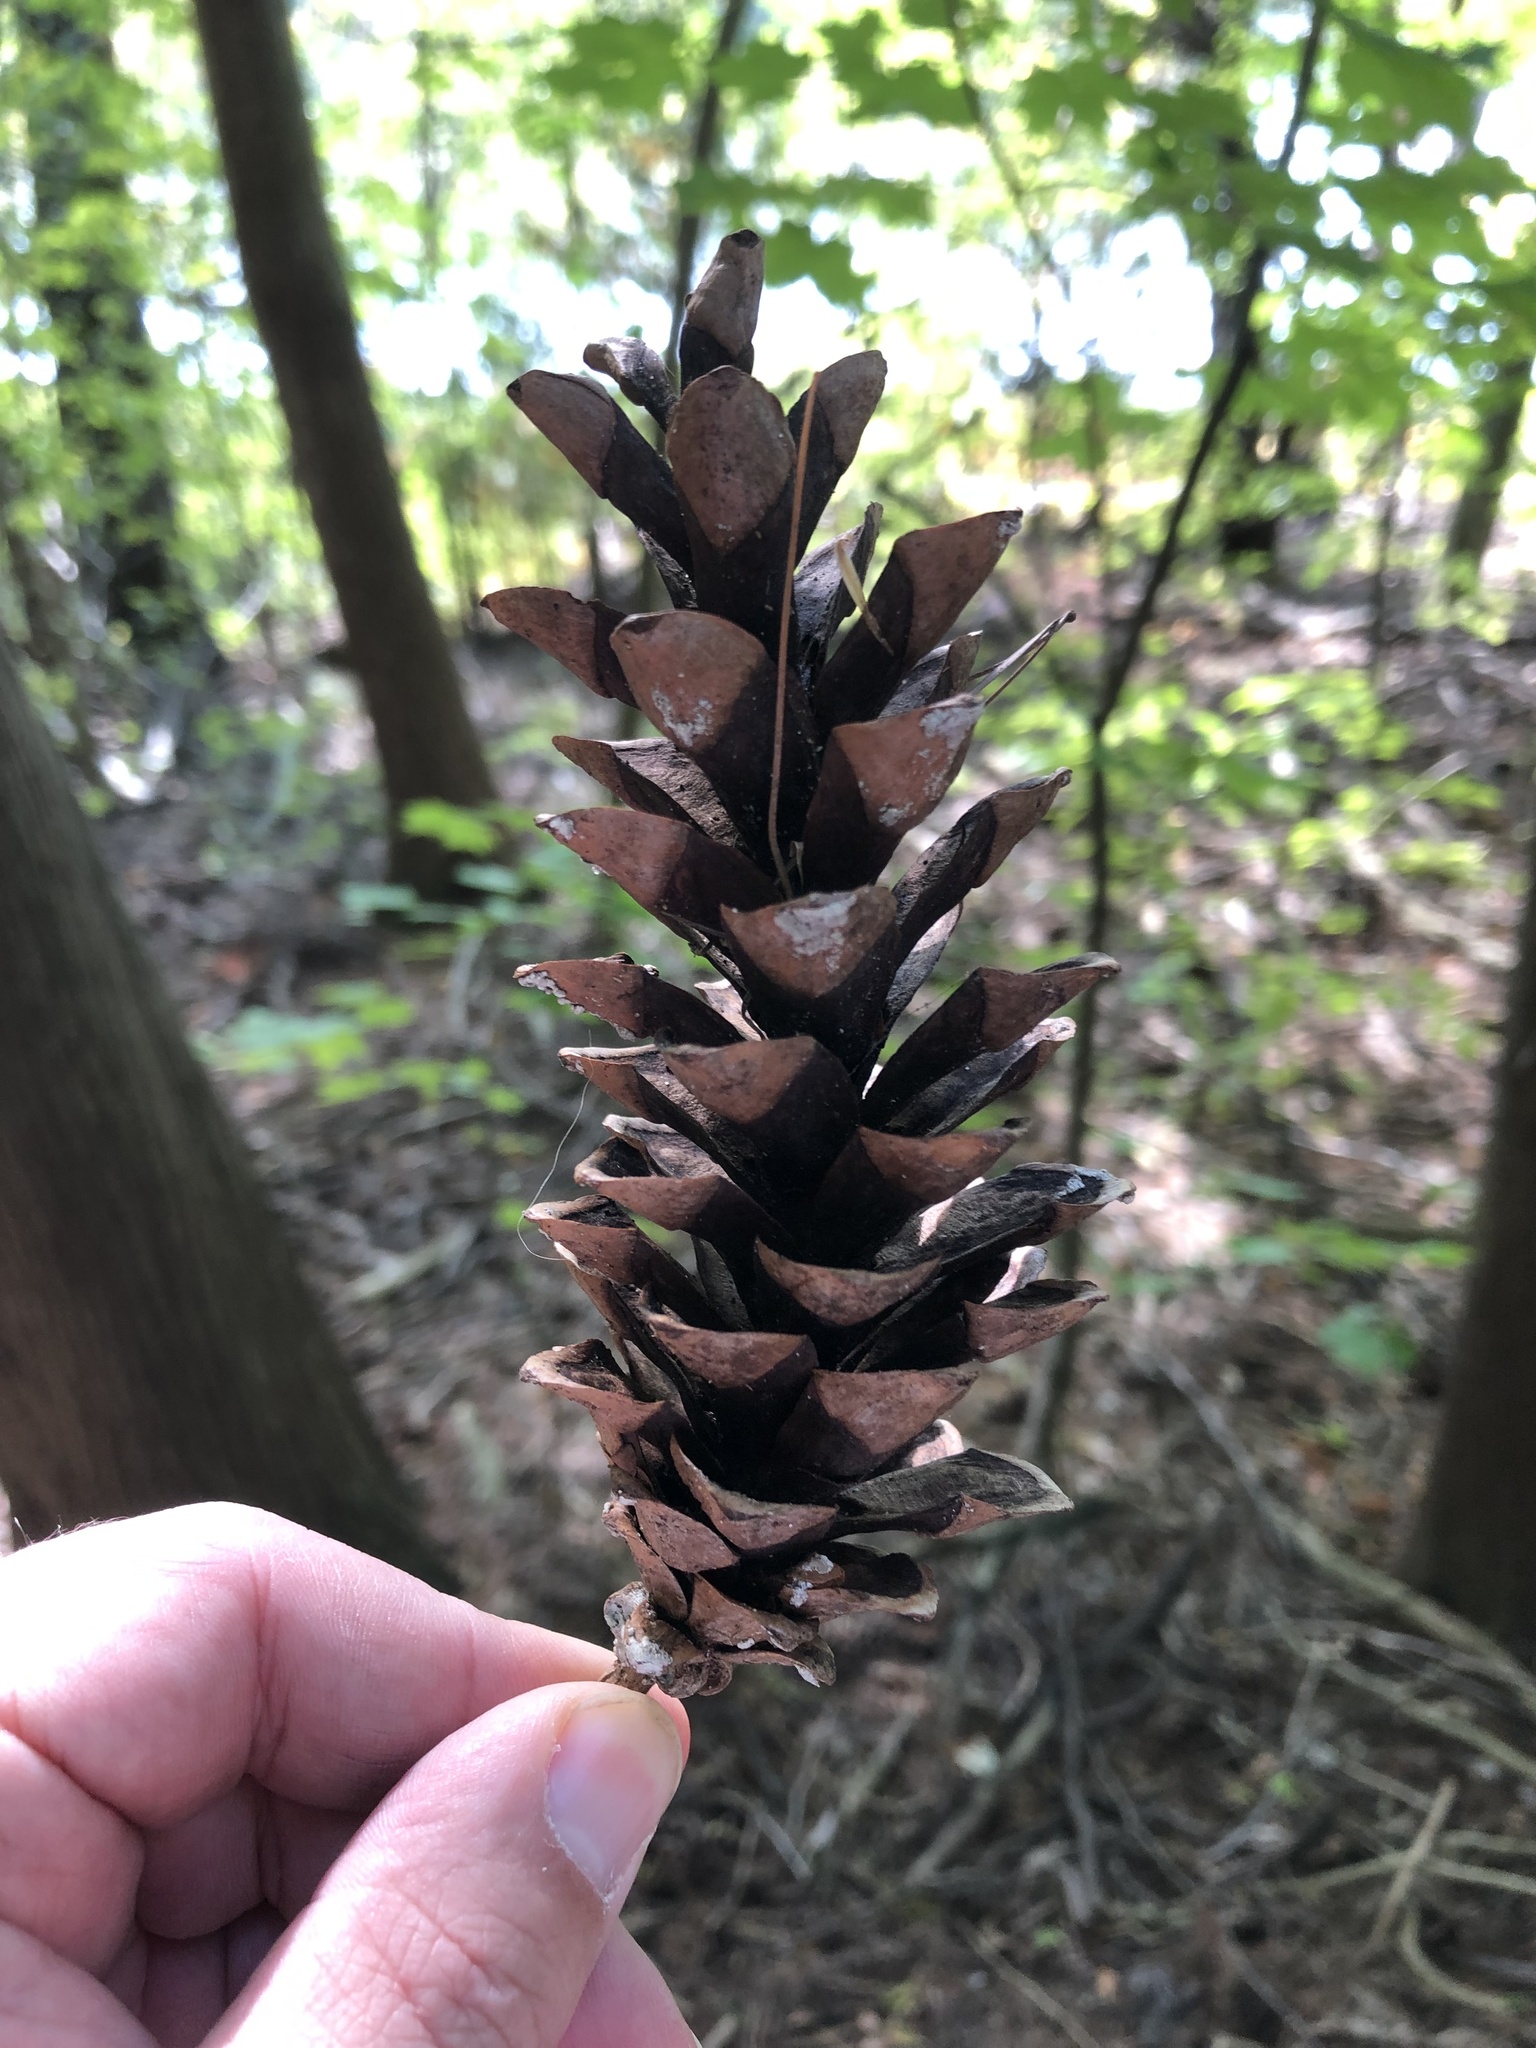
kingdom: Plantae
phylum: Tracheophyta
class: Pinopsida
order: Pinales
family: Pinaceae
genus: Pinus
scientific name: Pinus strobus
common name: Weymouth pine
